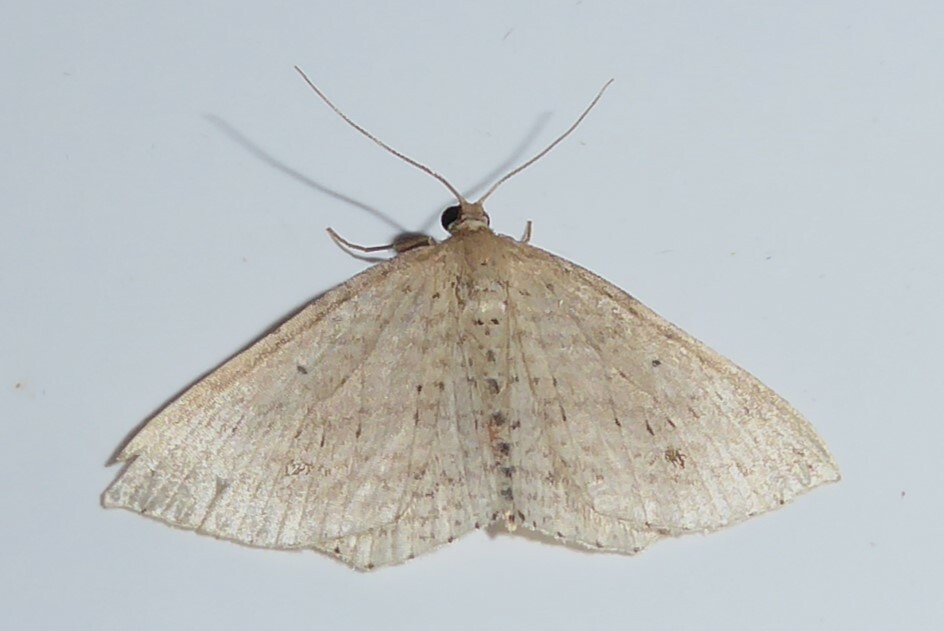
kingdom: Animalia
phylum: Arthropoda
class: Insecta
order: Lepidoptera
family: Geometridae
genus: Epicyme
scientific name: Epicyme rubropunctaria
